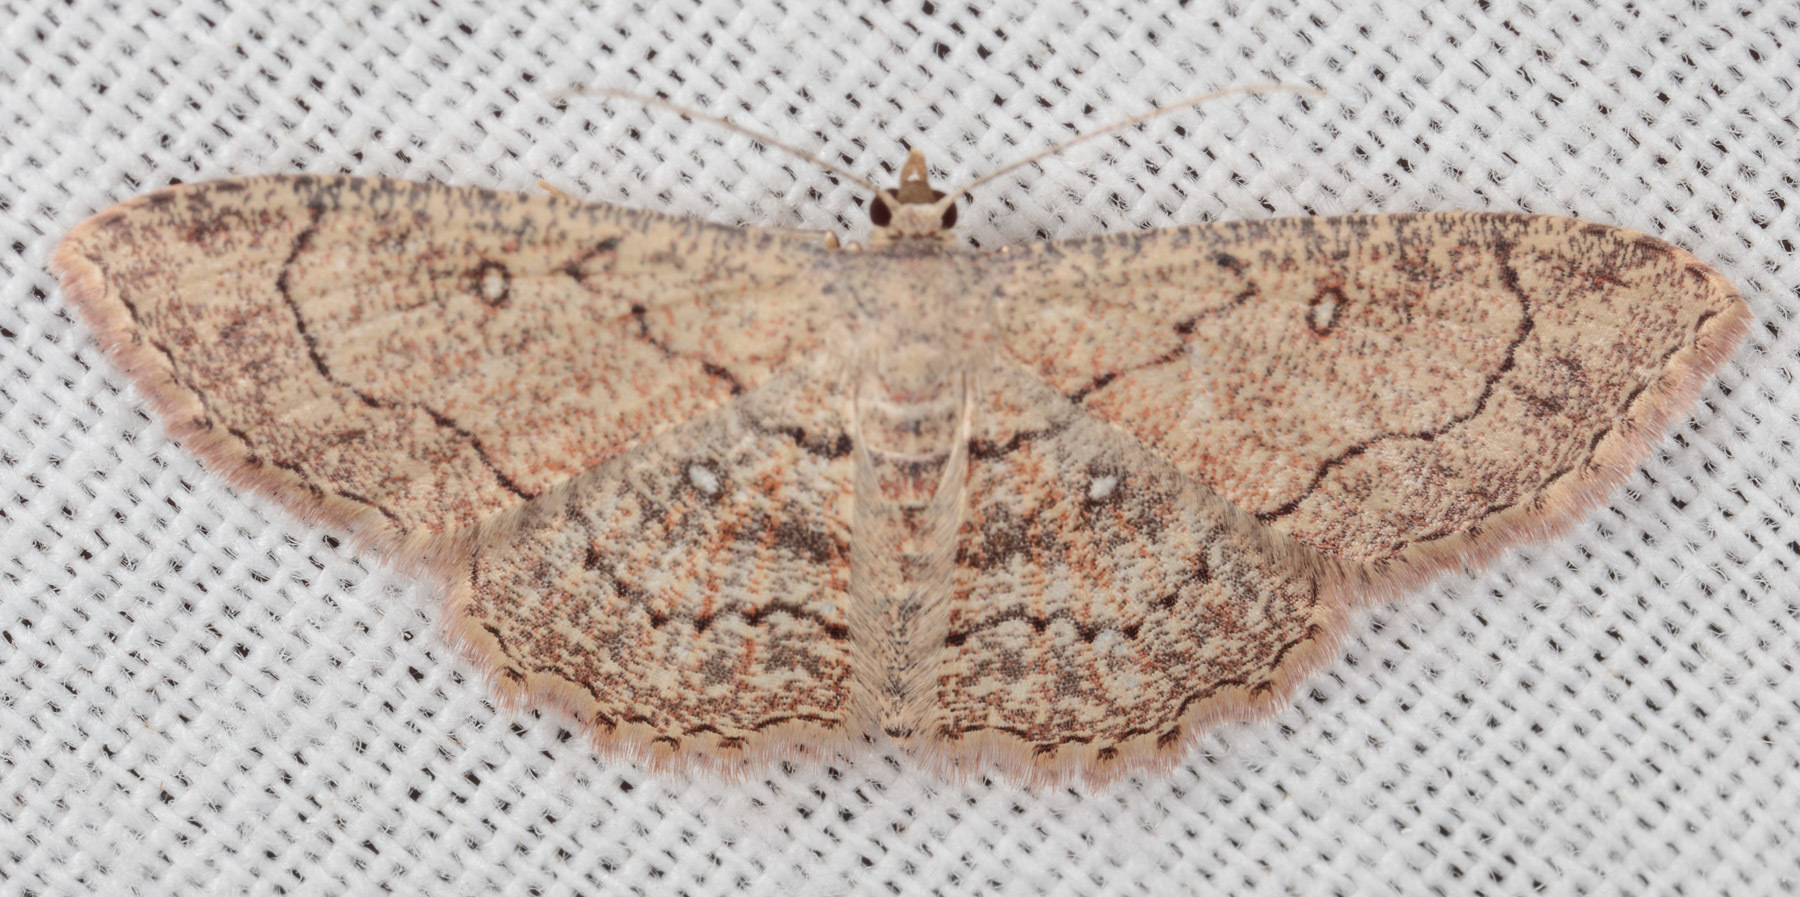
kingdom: Animalia
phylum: Arthropoda
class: Insecta
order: Lepidoptera
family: Geometridae
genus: Cyclophora
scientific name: Cyclophora nanaria
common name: Cankerworm
